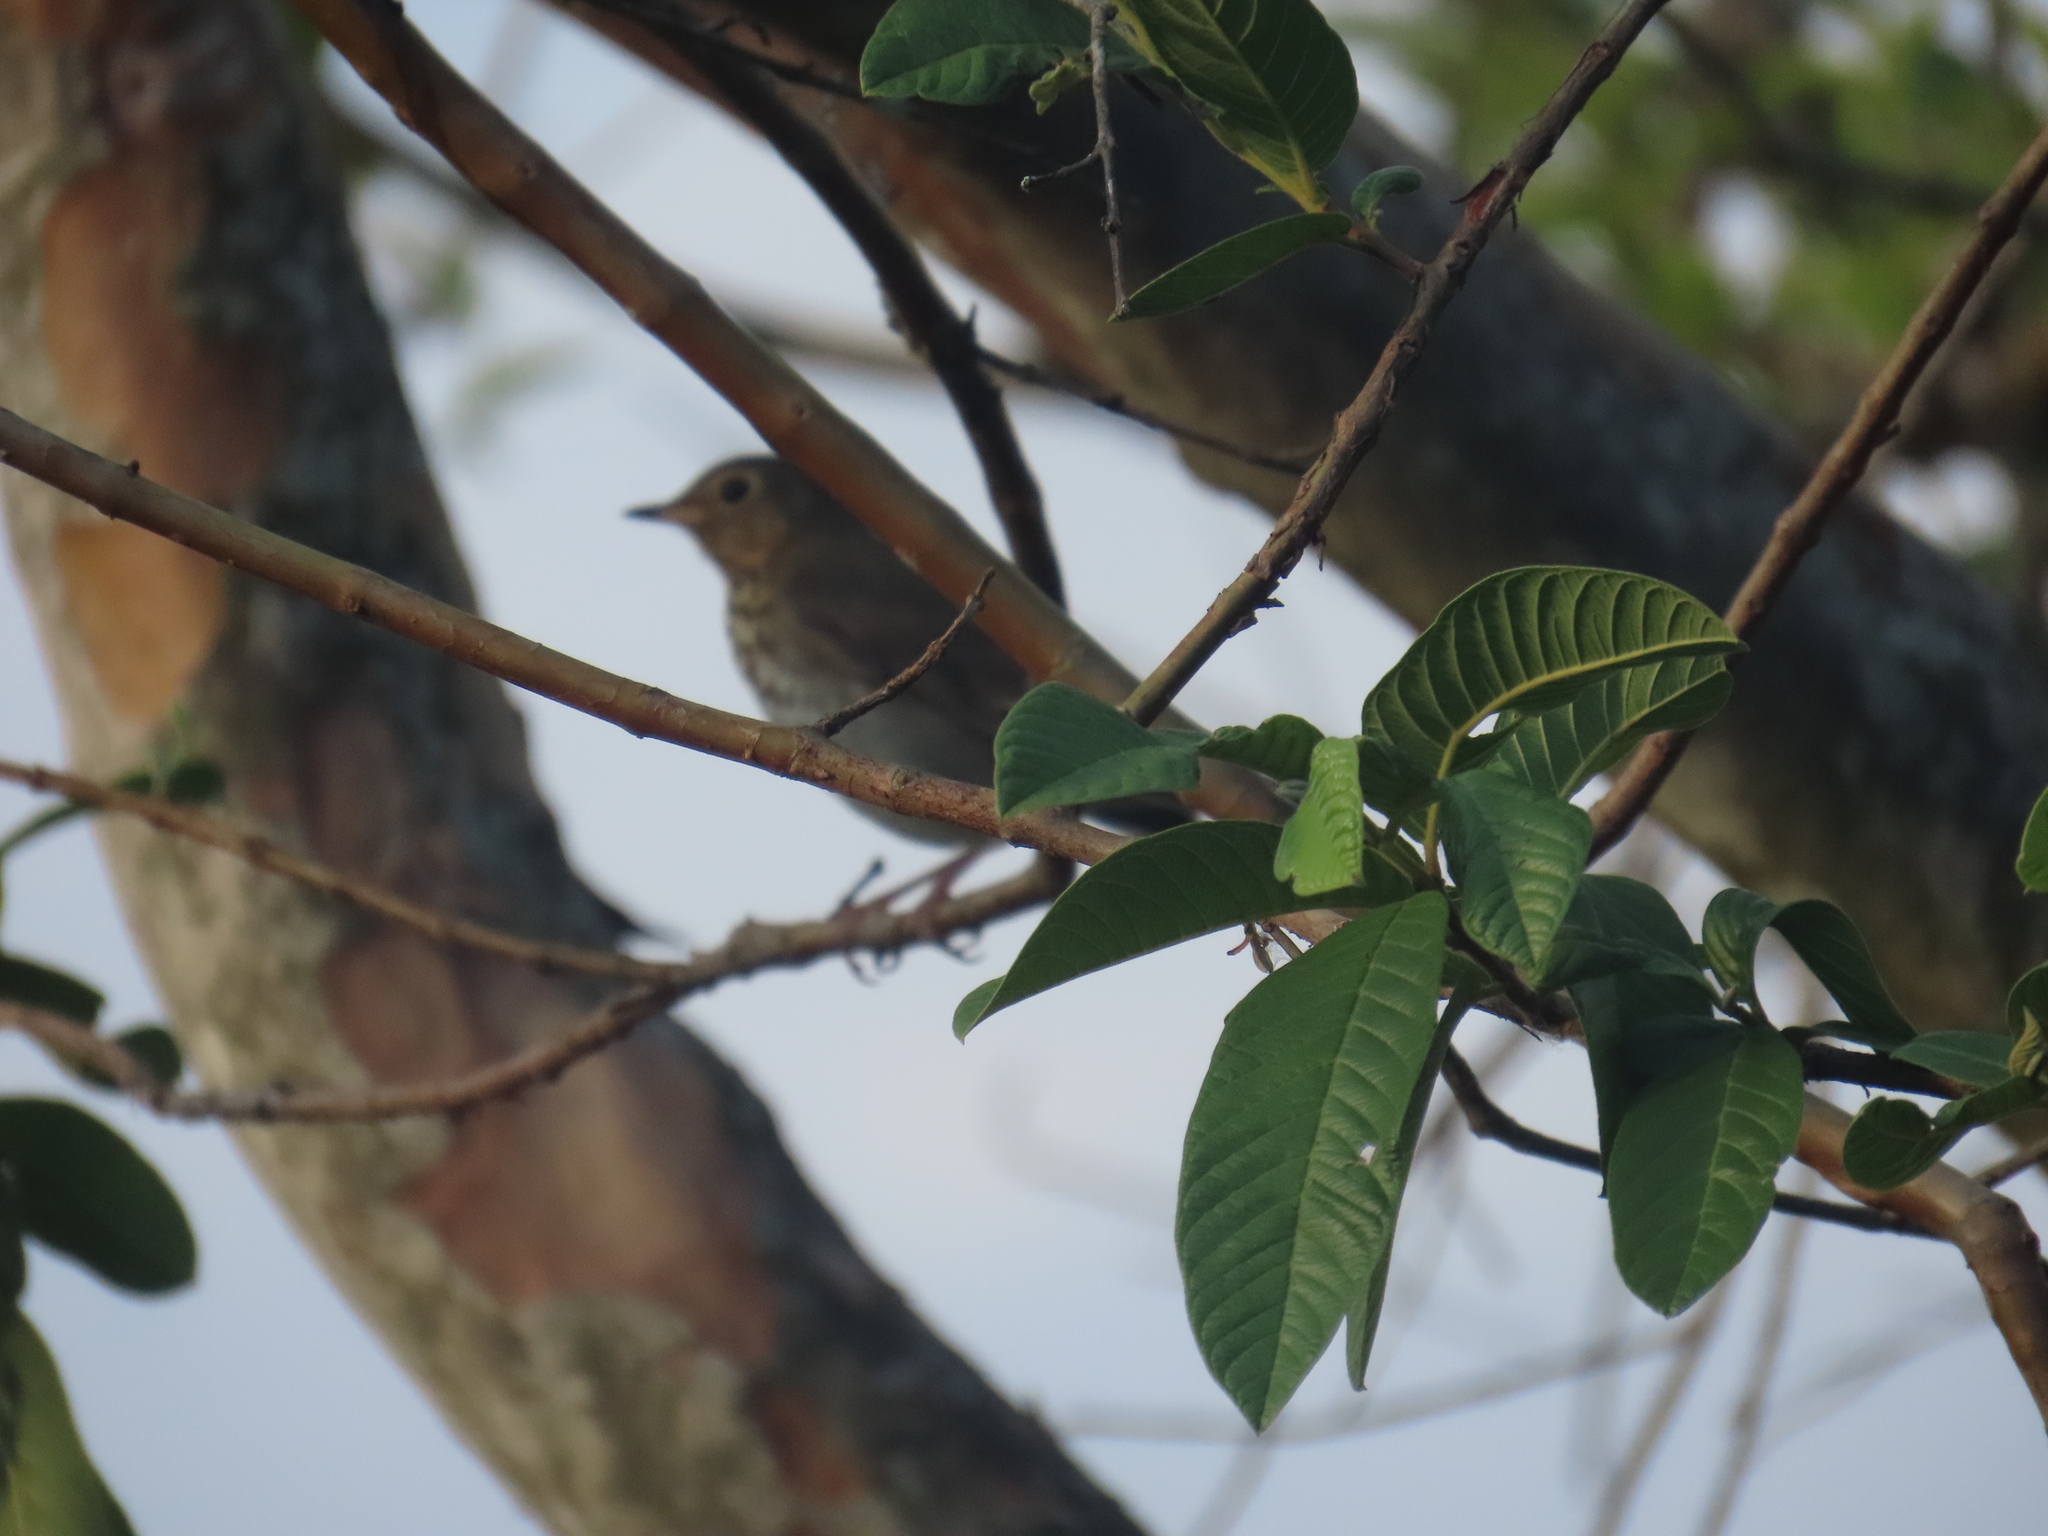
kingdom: Animalia
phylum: Chordata
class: Aves
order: Passeriformes
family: Turdidae
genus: Catharus
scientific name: Catharus ustulatus
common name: Swainson's thrush
